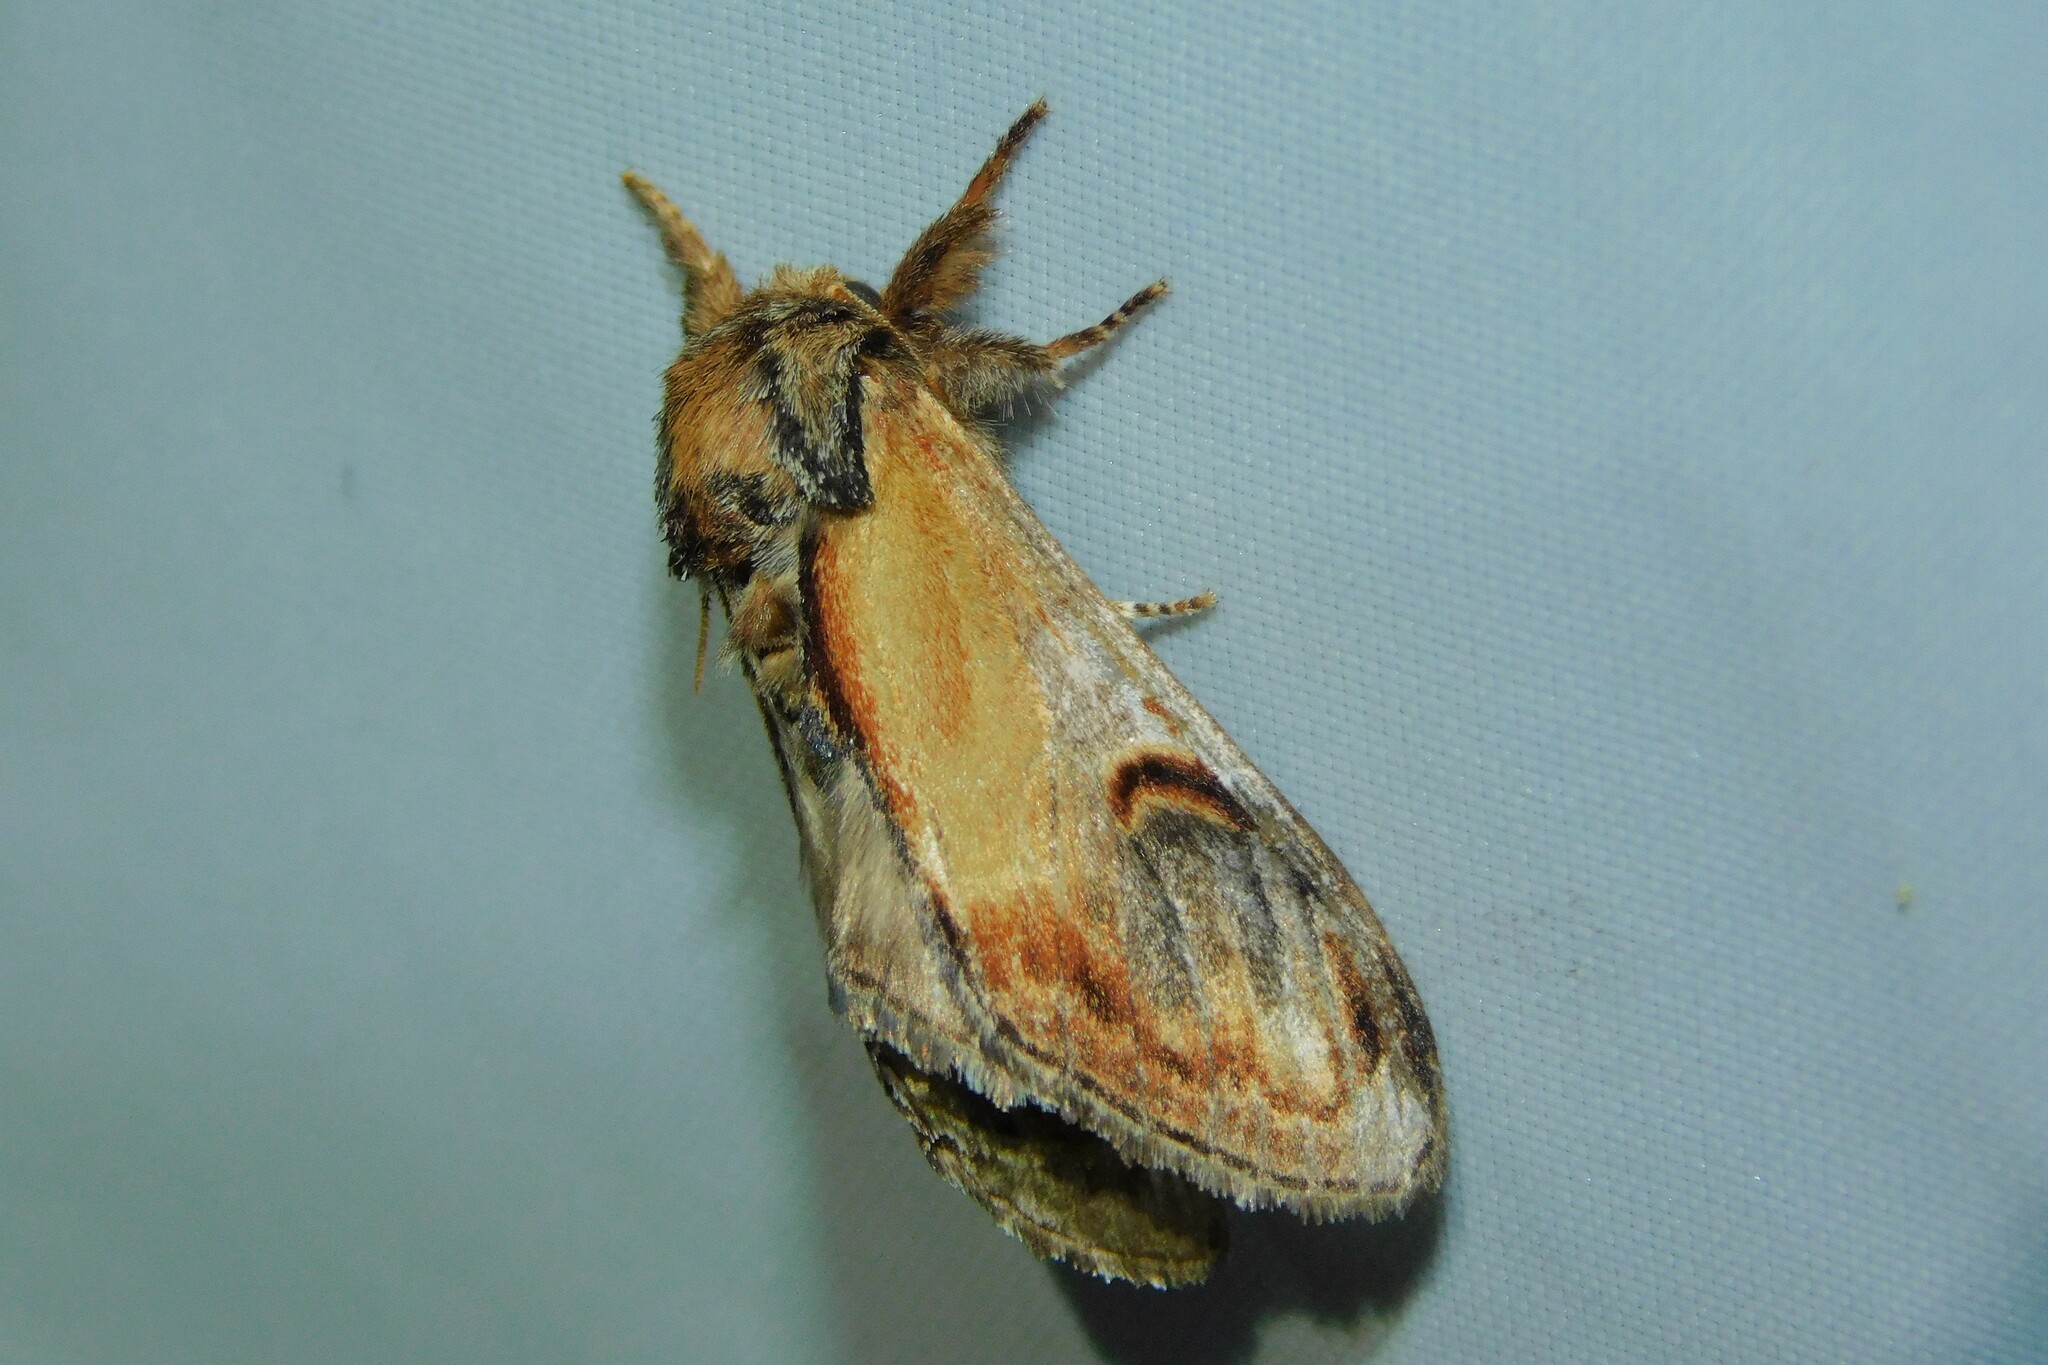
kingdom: Animalia
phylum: Arthropoda
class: Insecta
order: Lepidoptera
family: Notodontidae
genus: Notodonta
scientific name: Notodonta ziczac
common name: Pebble prominent
